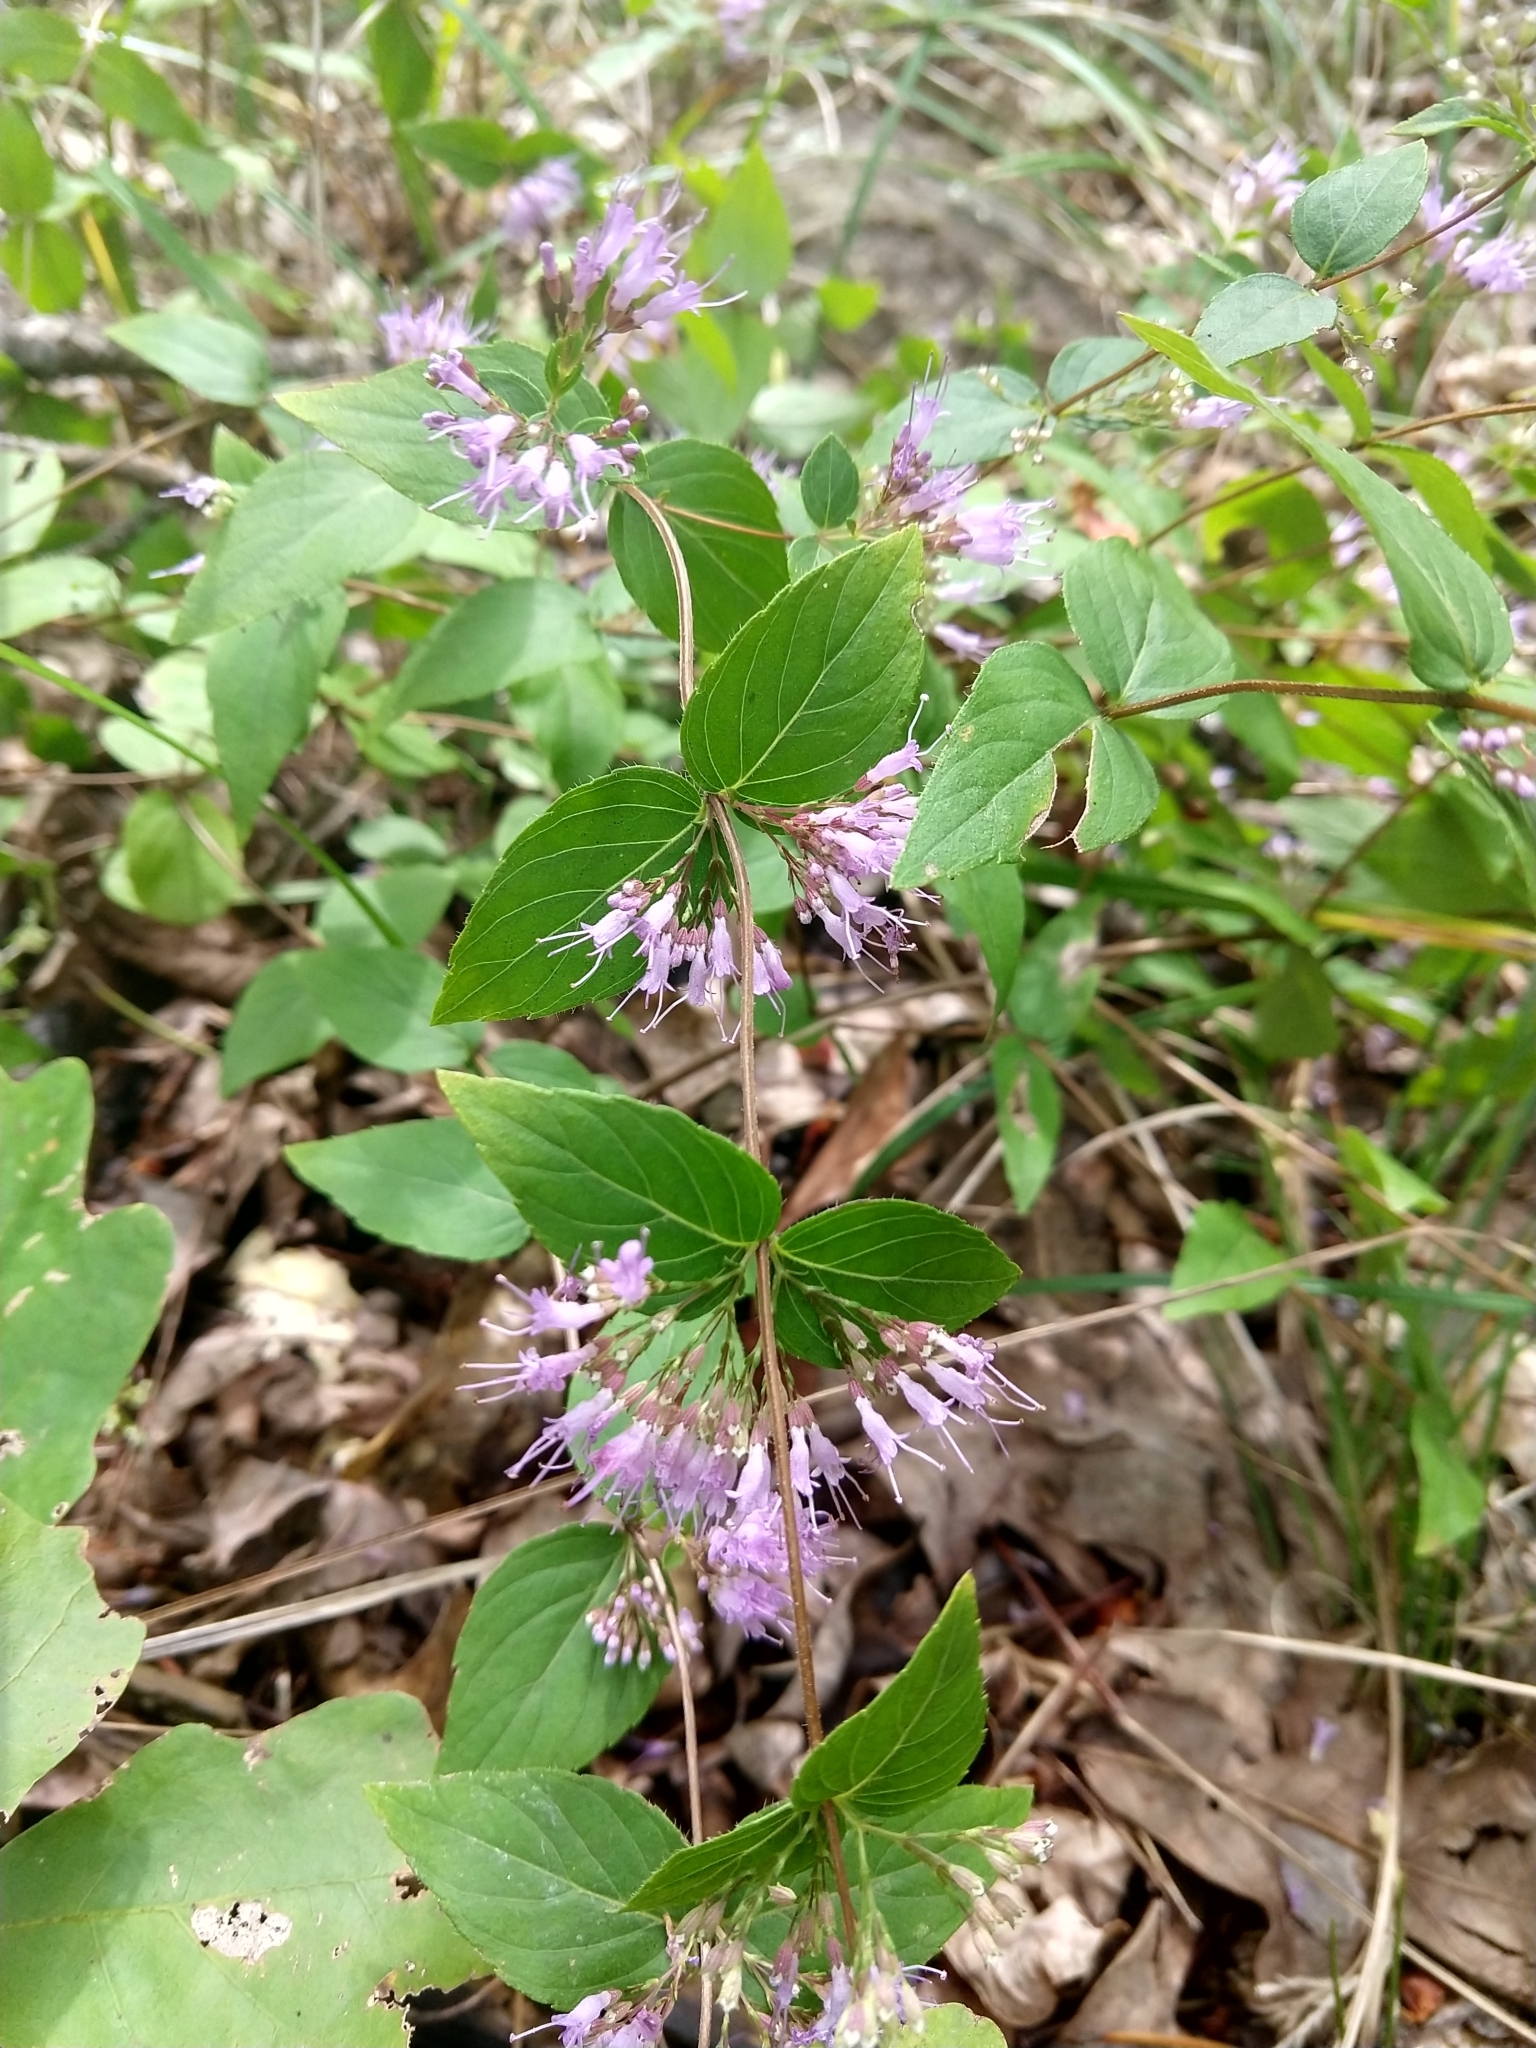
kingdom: Plantae
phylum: Tracheophyta
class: Magnoliopsida
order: Lamiales
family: Lamiaceae
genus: Cunila
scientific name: Cunila origanoides
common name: American dittany
